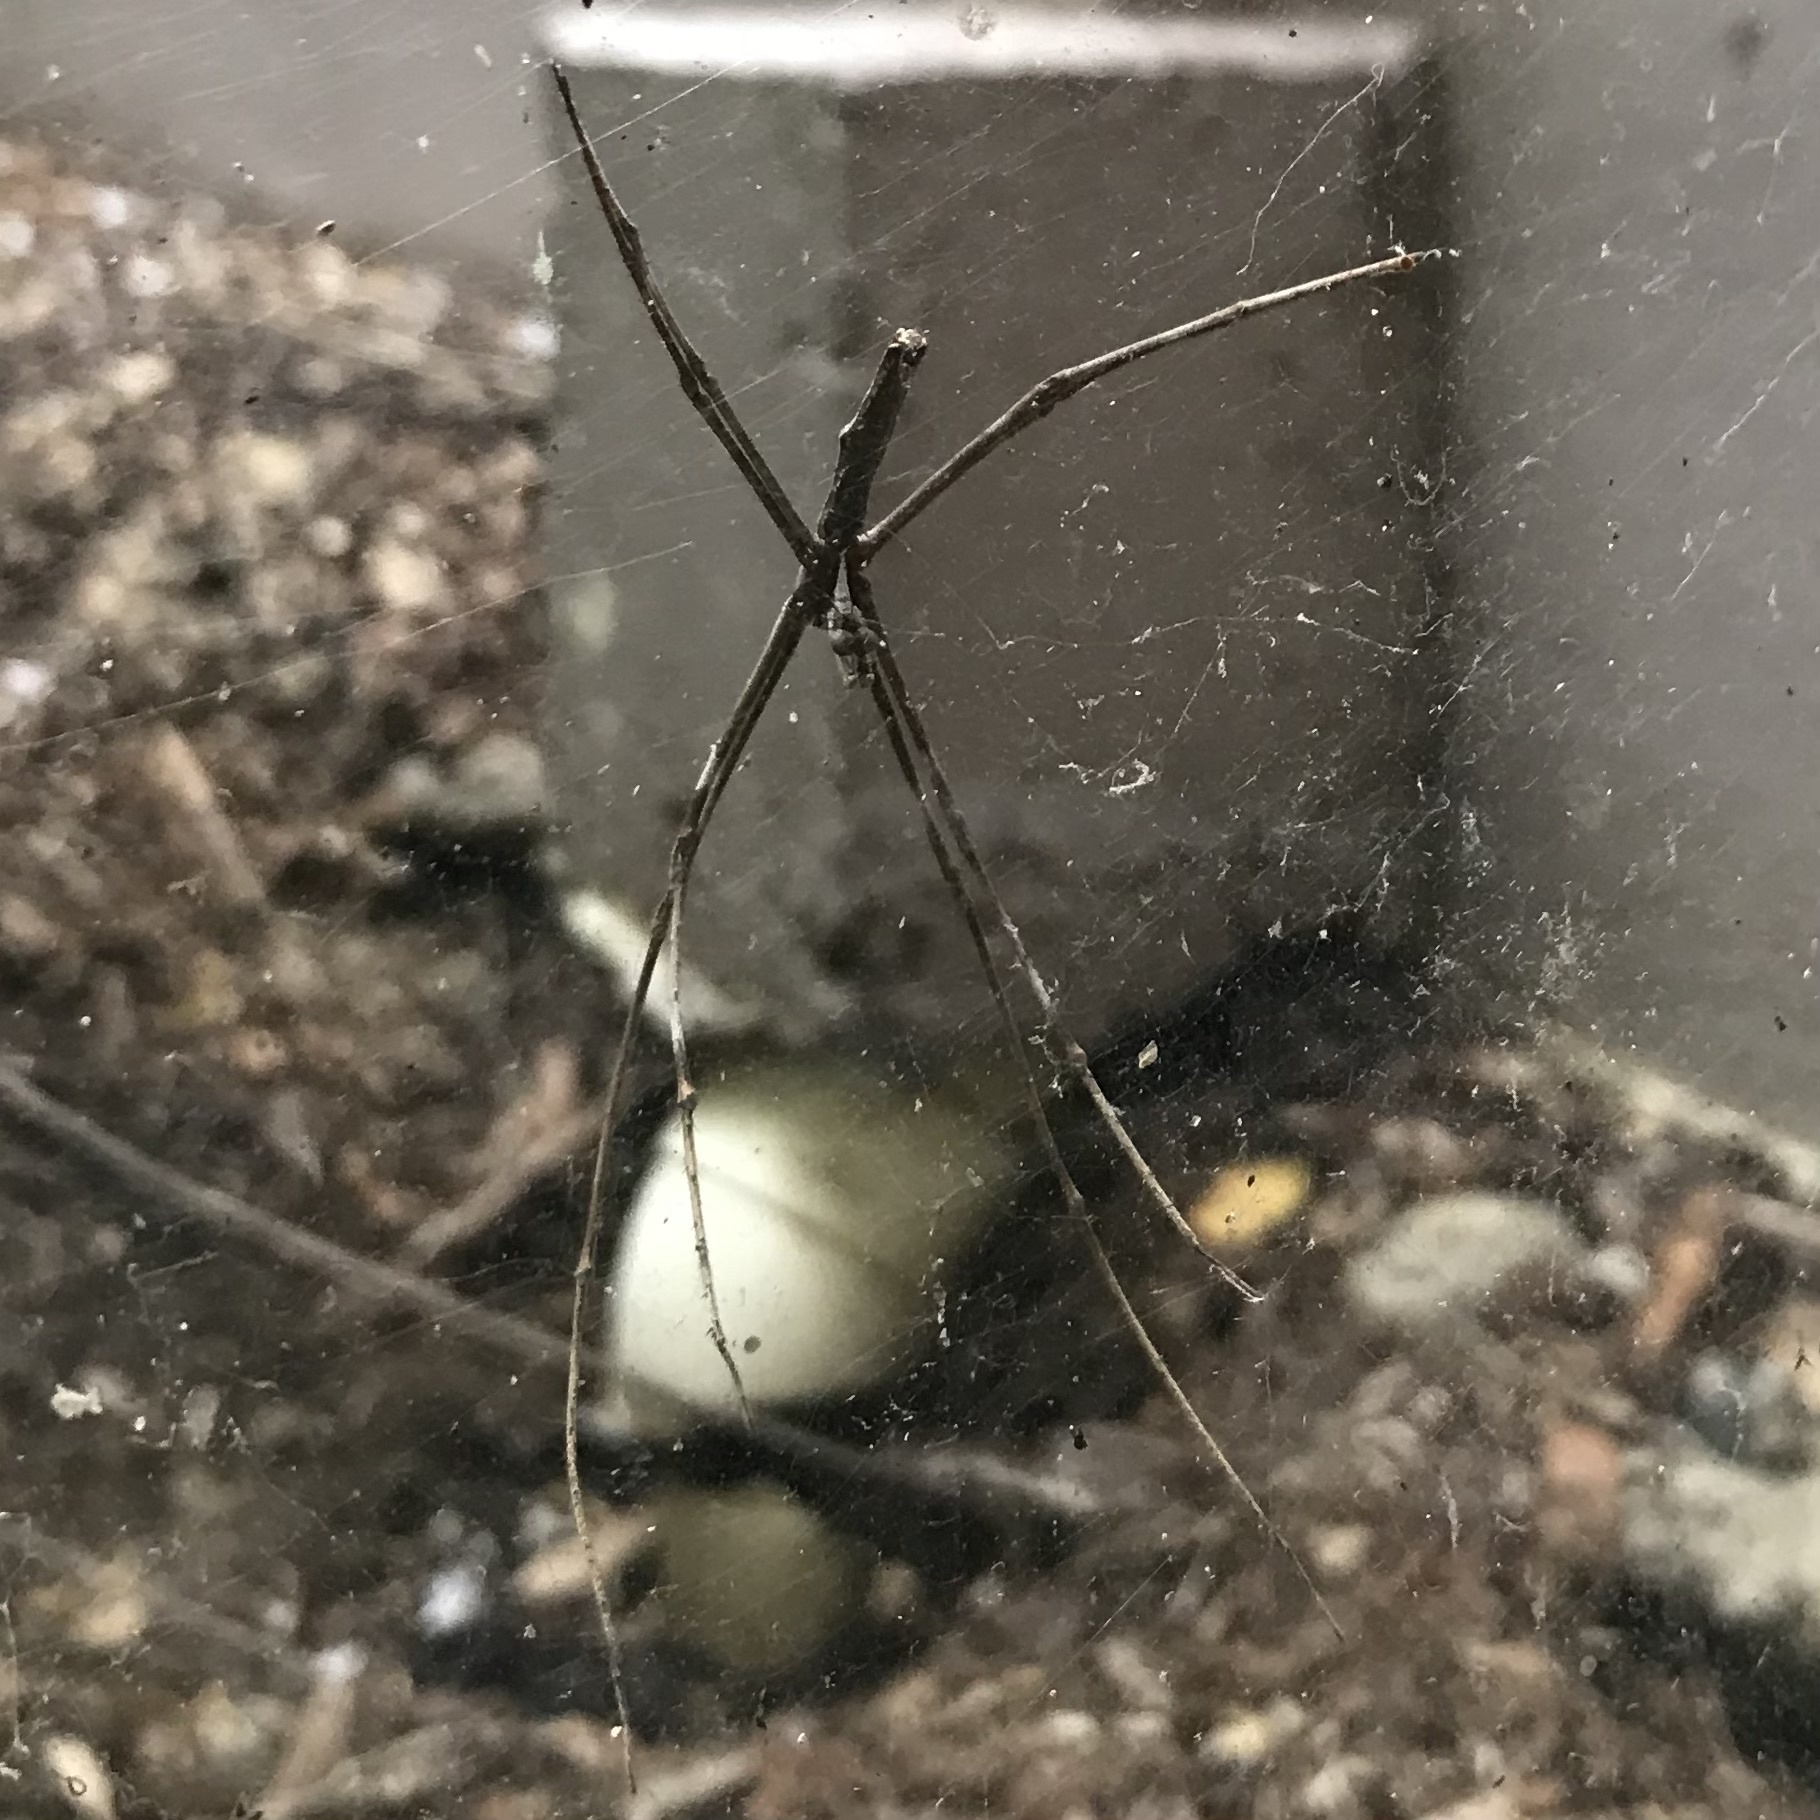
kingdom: Animalia
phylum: Arthropoda
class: Arachnida
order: Araneae
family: Deinopidae
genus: Deinopis
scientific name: Deinopis subrufa
